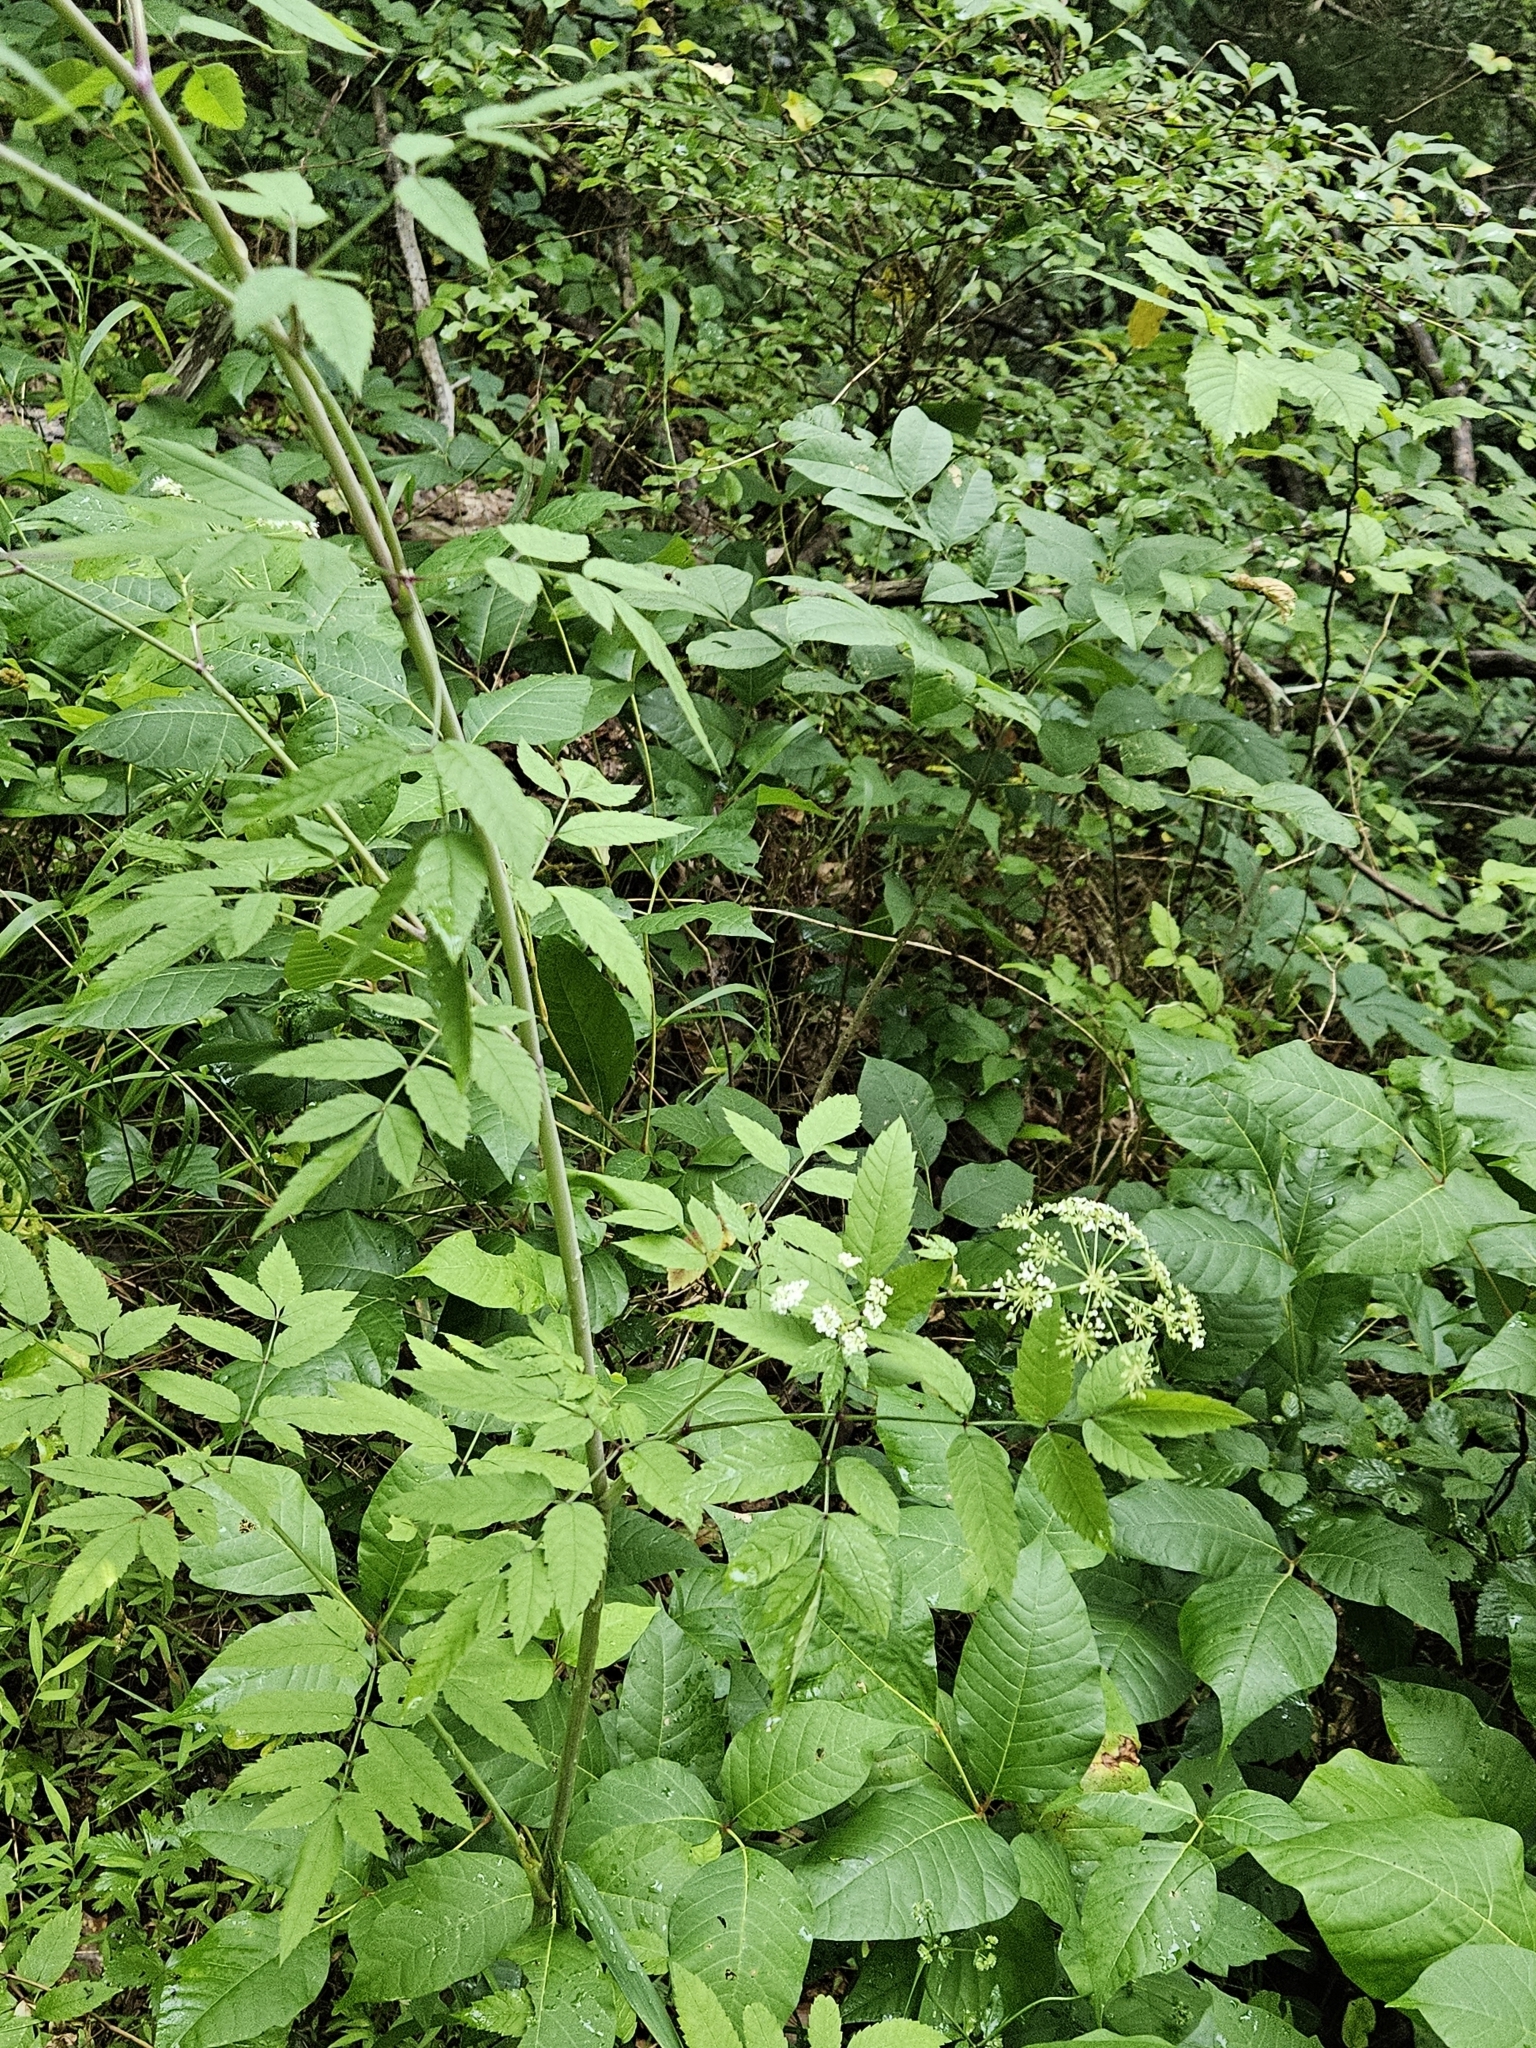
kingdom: Plantae
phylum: Tracheophyta
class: Magnoliopsida
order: Apiales
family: Apiaceae
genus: Cicuta
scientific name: Cicuta maculata
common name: Spotted cowbane
